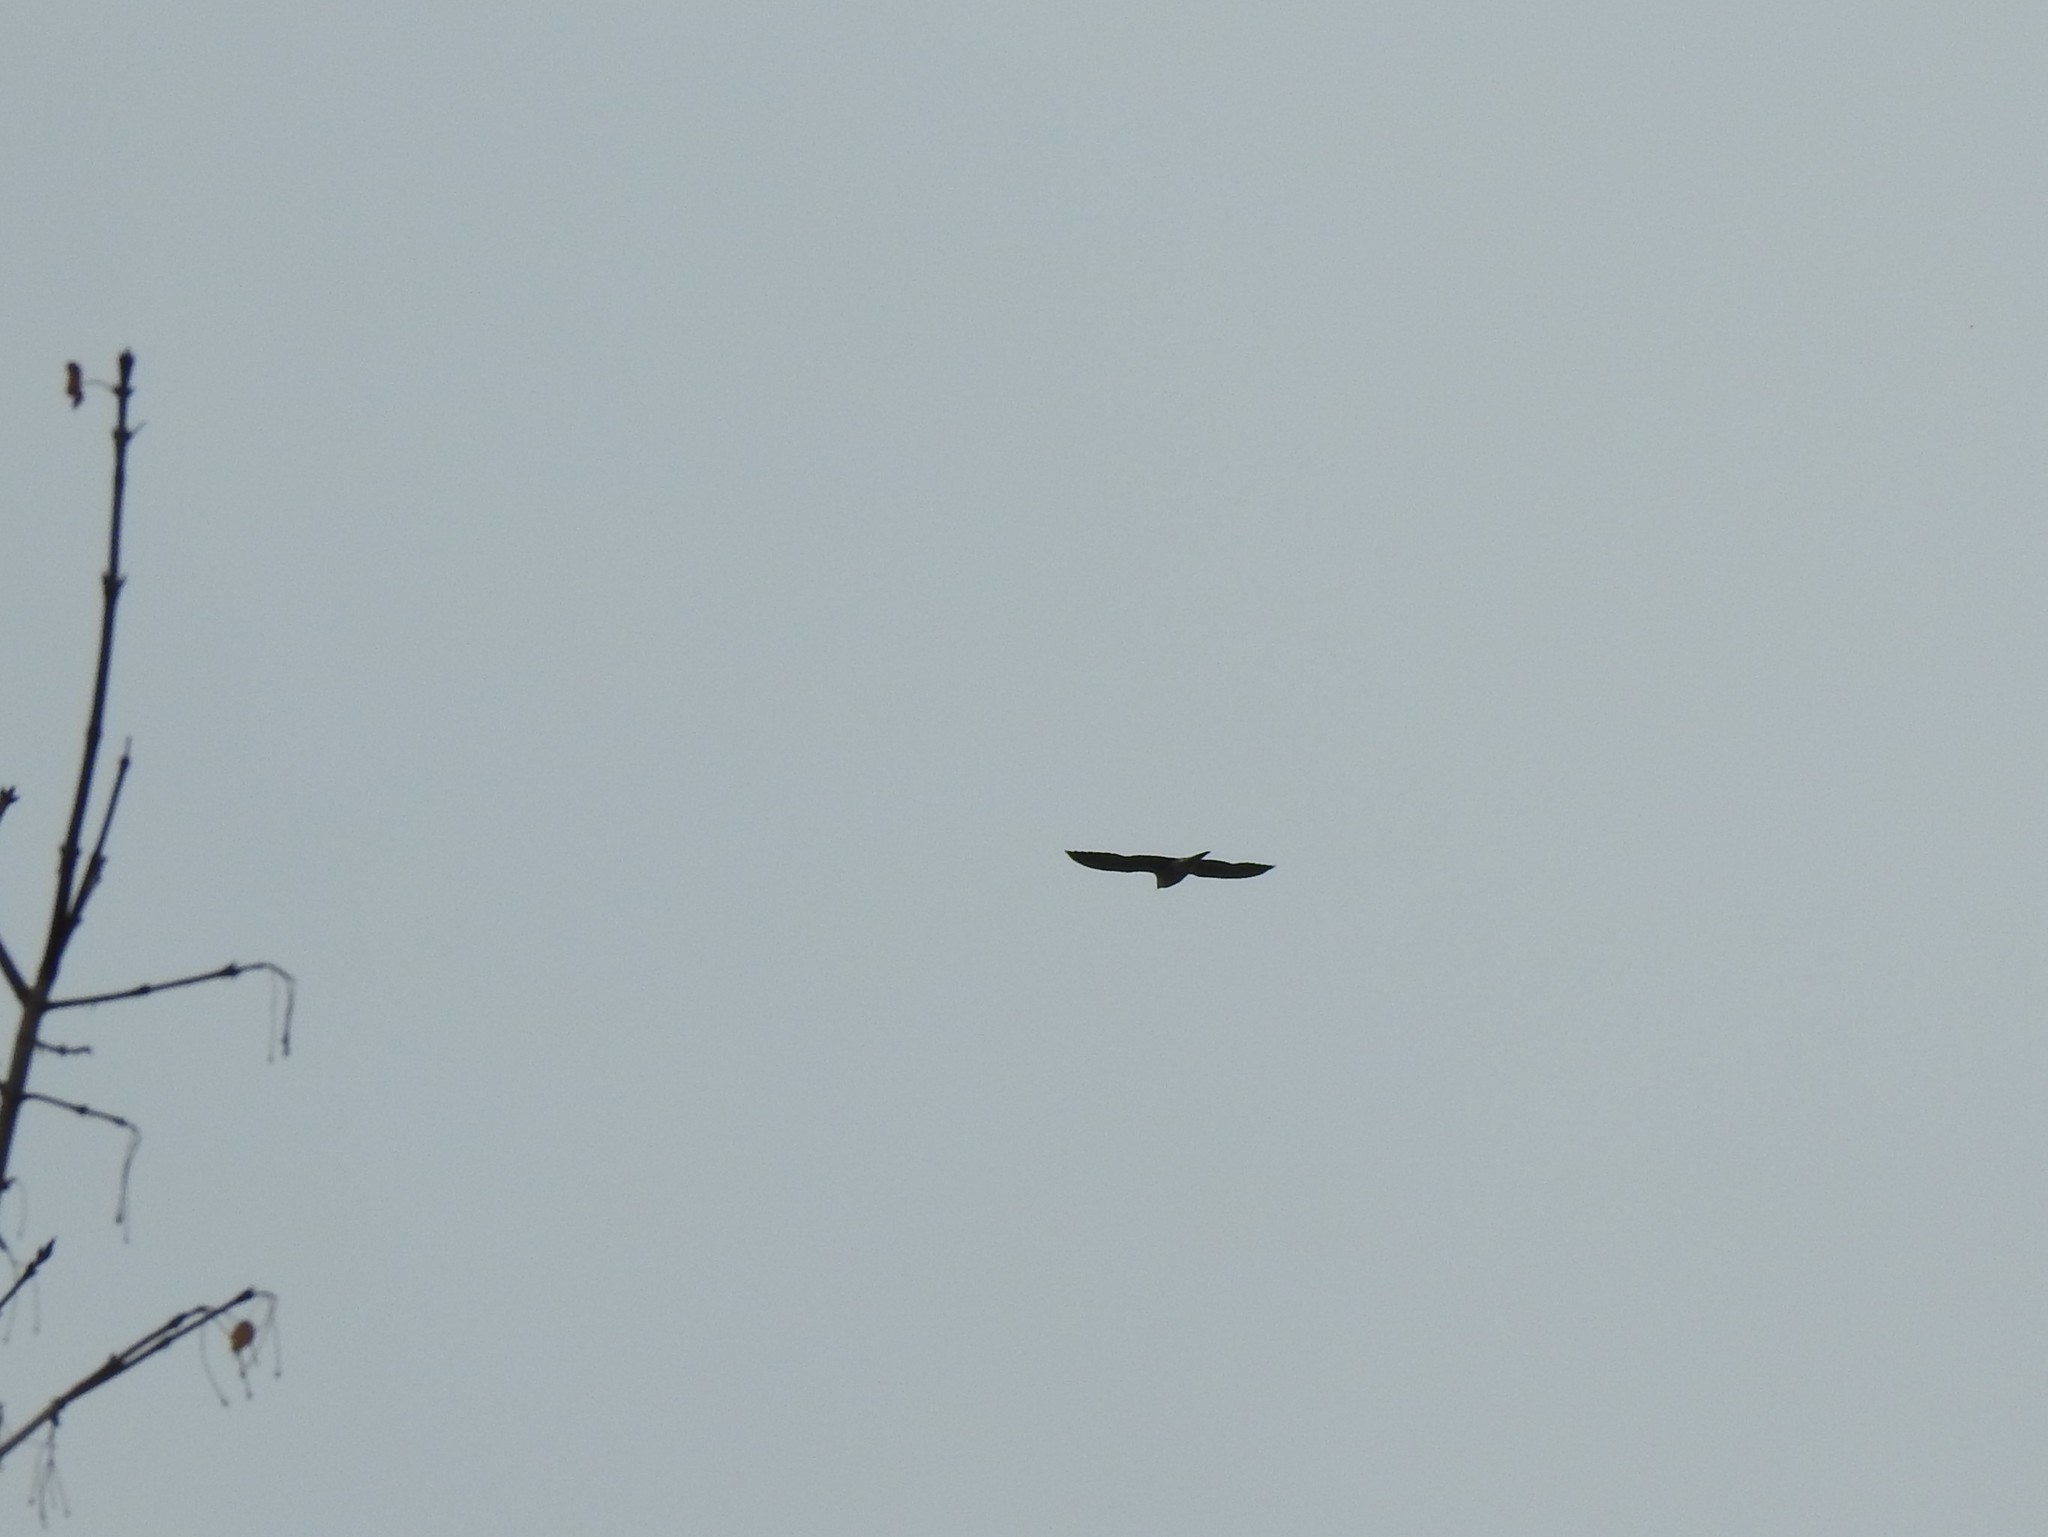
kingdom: Animalia
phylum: Chordata
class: Aves
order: Falconiformes
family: Falconidae
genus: Falco
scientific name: Falco peregrinus
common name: Peregrine falcon
